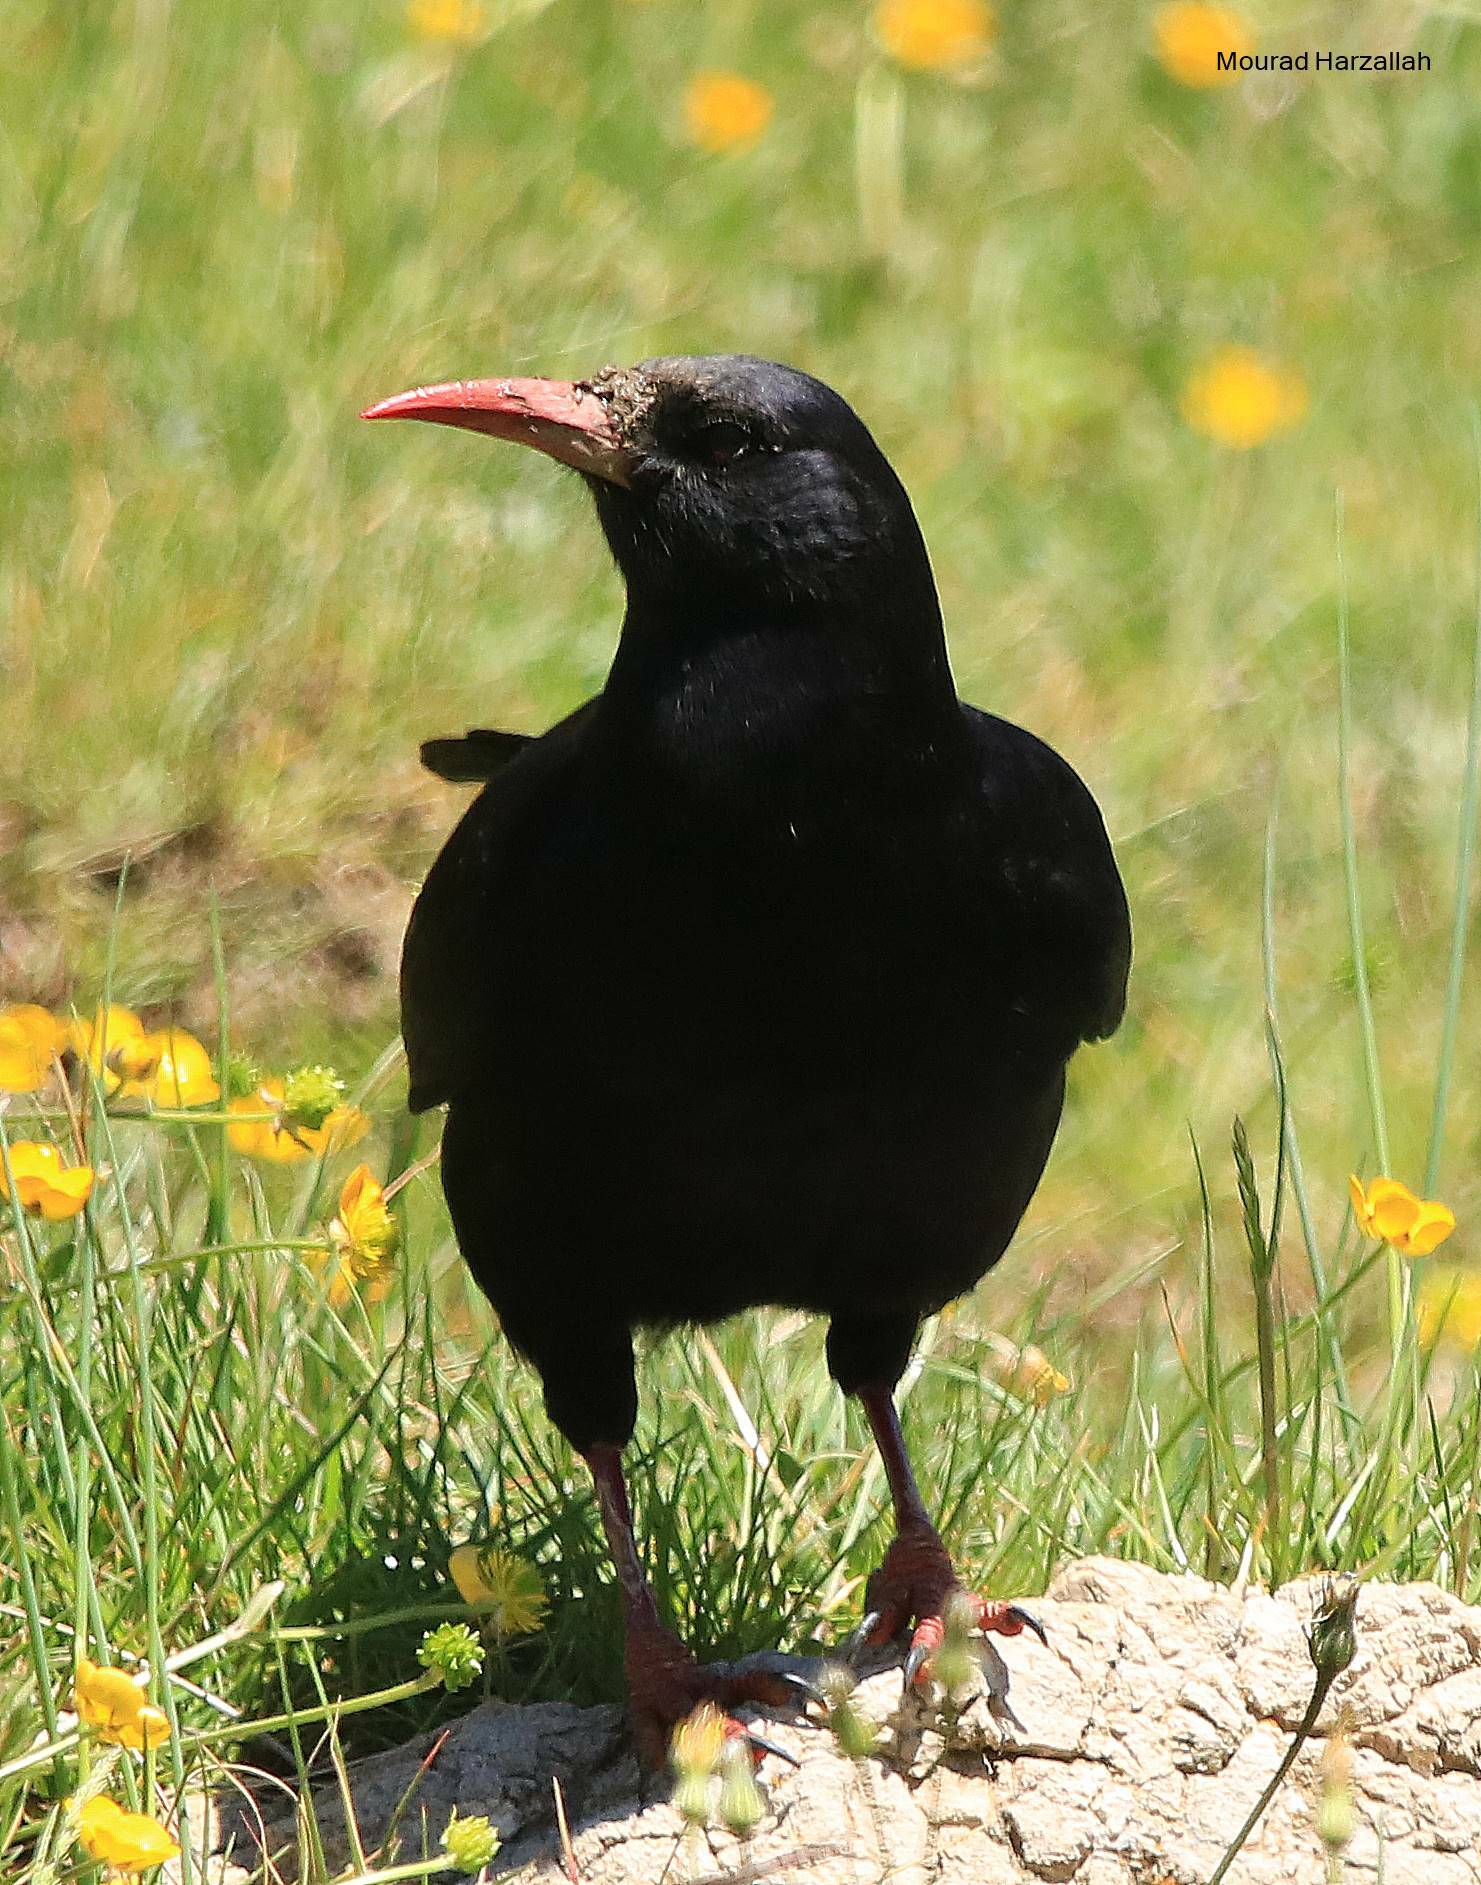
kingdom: Animalia
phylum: Chordata
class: Aves
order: Passeriformes
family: Corvidae
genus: Pyrrhocorax
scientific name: Pyrrhocorax pyrrhocorax
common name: Red-billed chough
